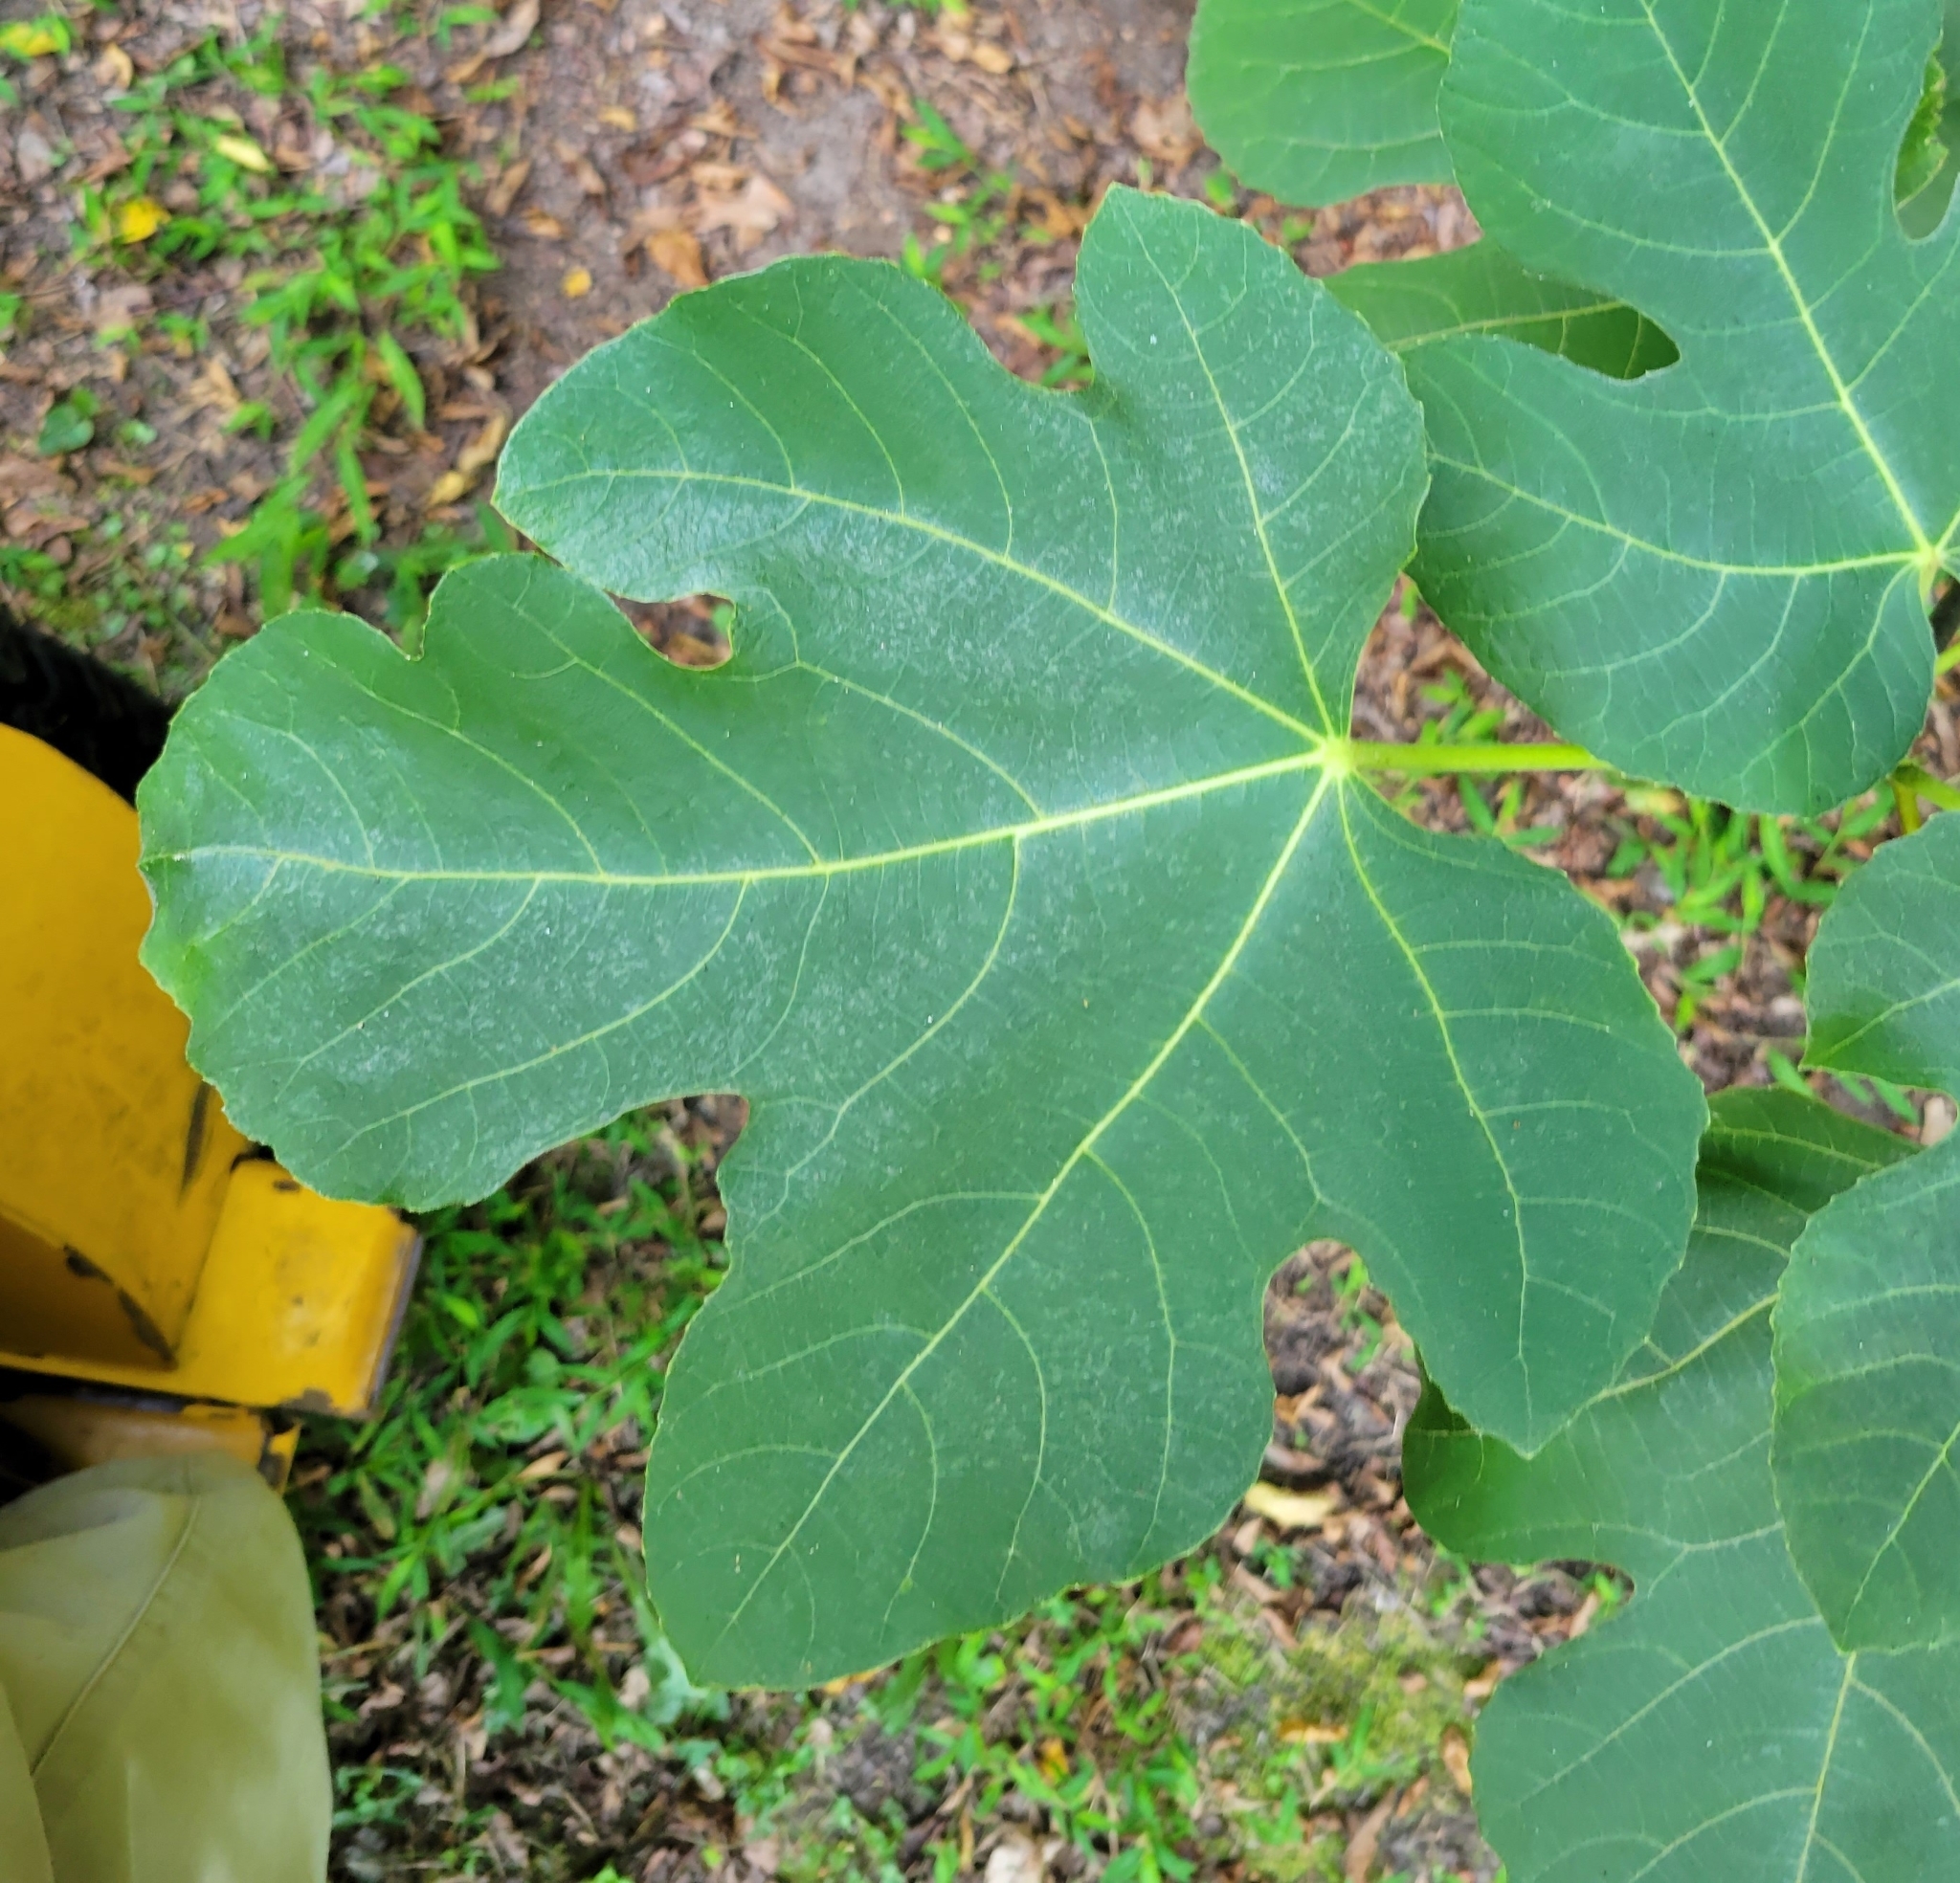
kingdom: Plantae
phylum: Tracheophyta
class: Magnoliopsida
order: Rosales
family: Moraceae
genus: Ficus
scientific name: Ficus carica
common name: Fig
